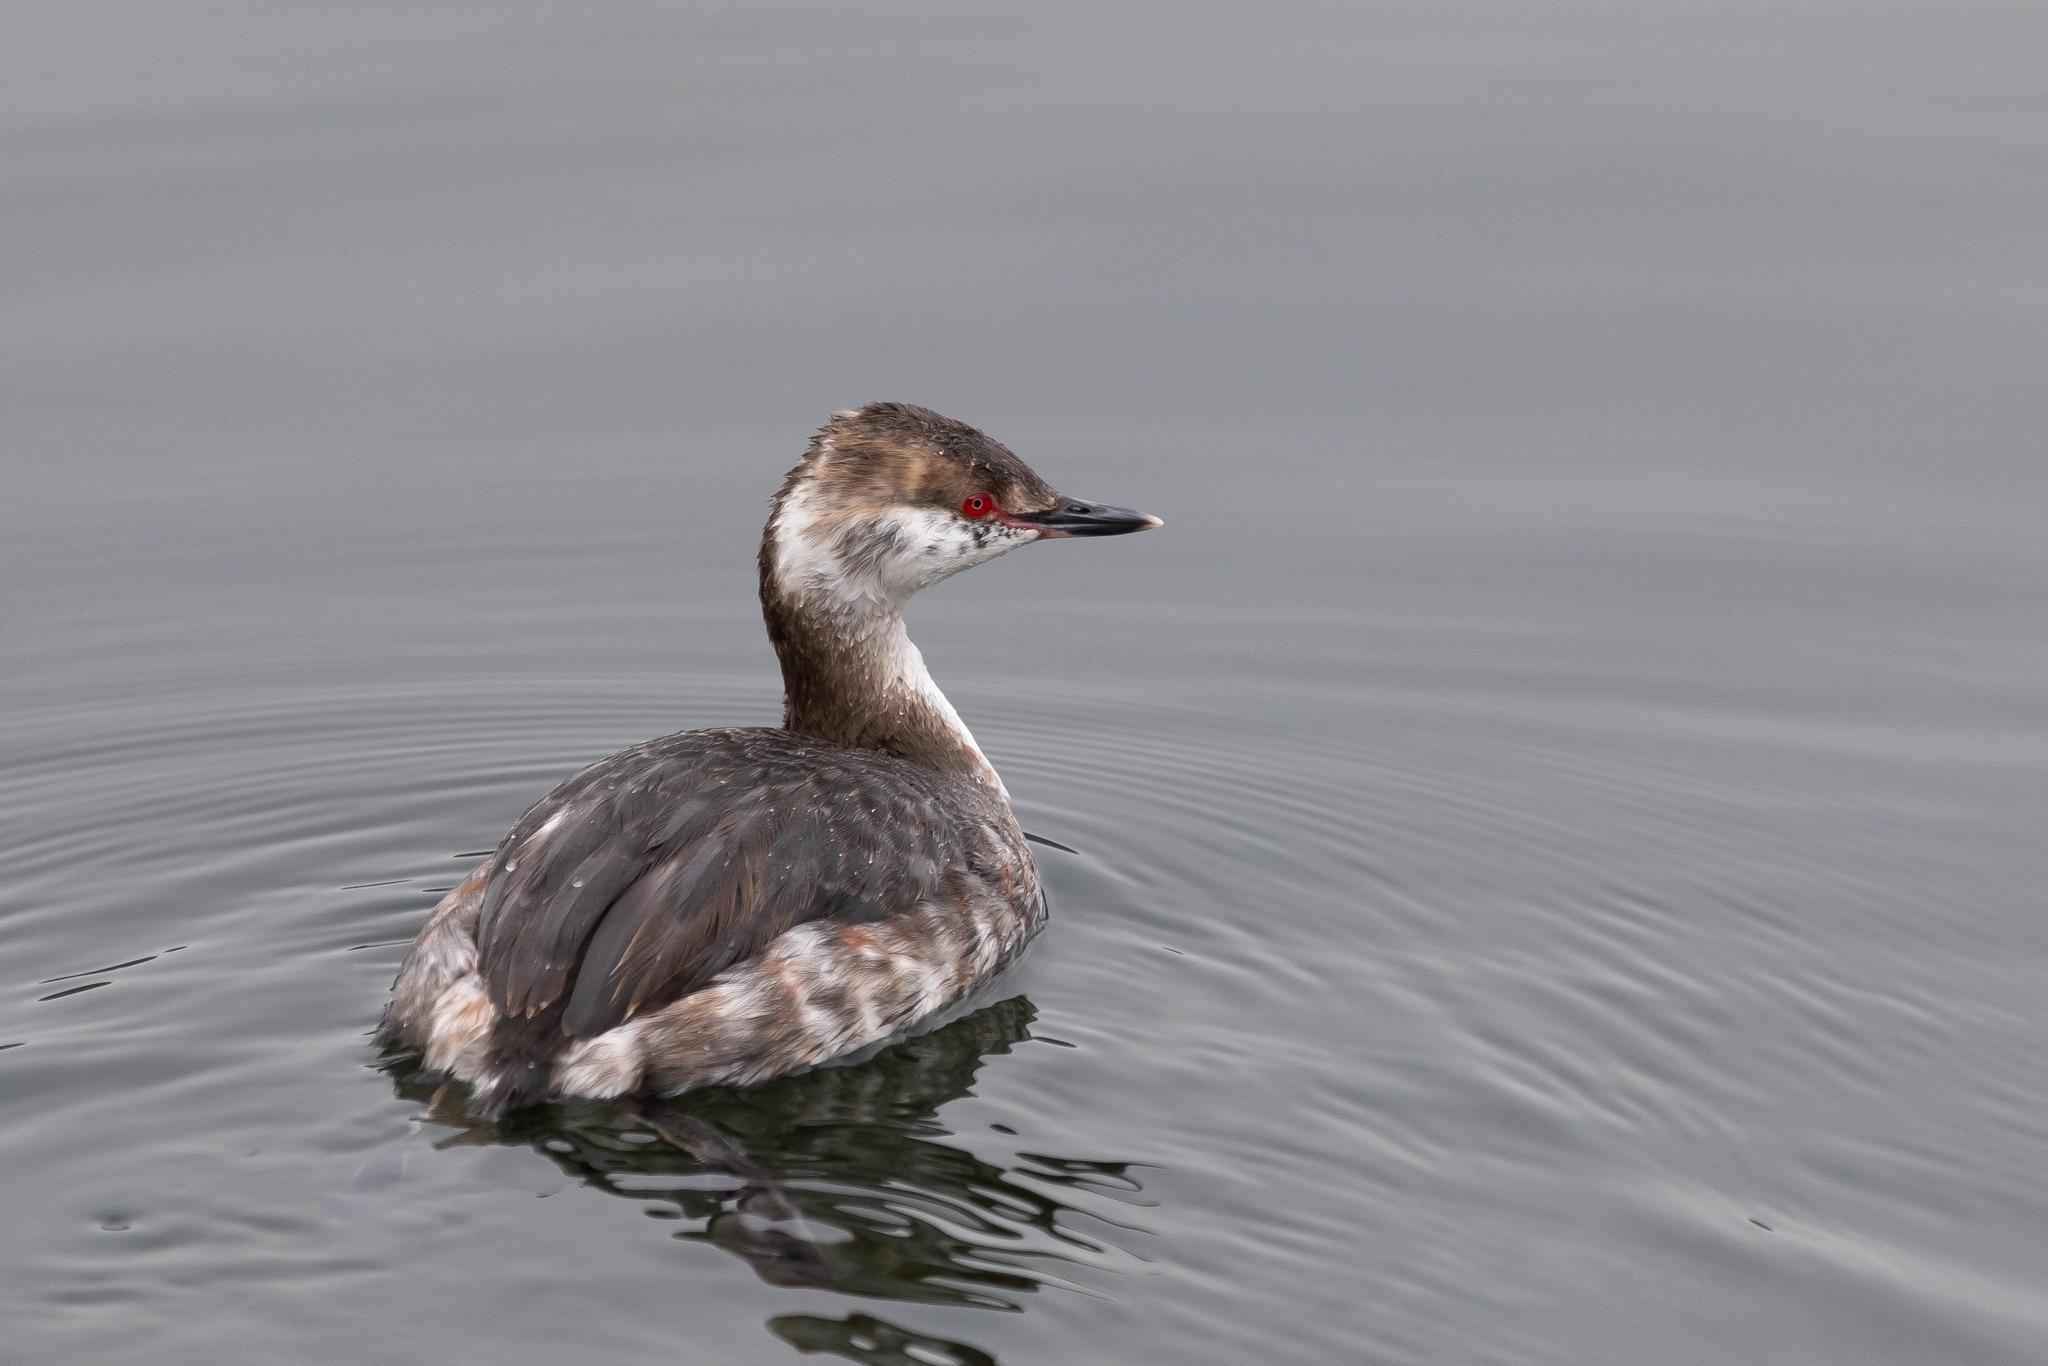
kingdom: Animalia
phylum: Chordata
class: Aves
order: Podicipediformes
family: Podicipedidae
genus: Podiceps
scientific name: Podiceps auritus
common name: Horned grebe
